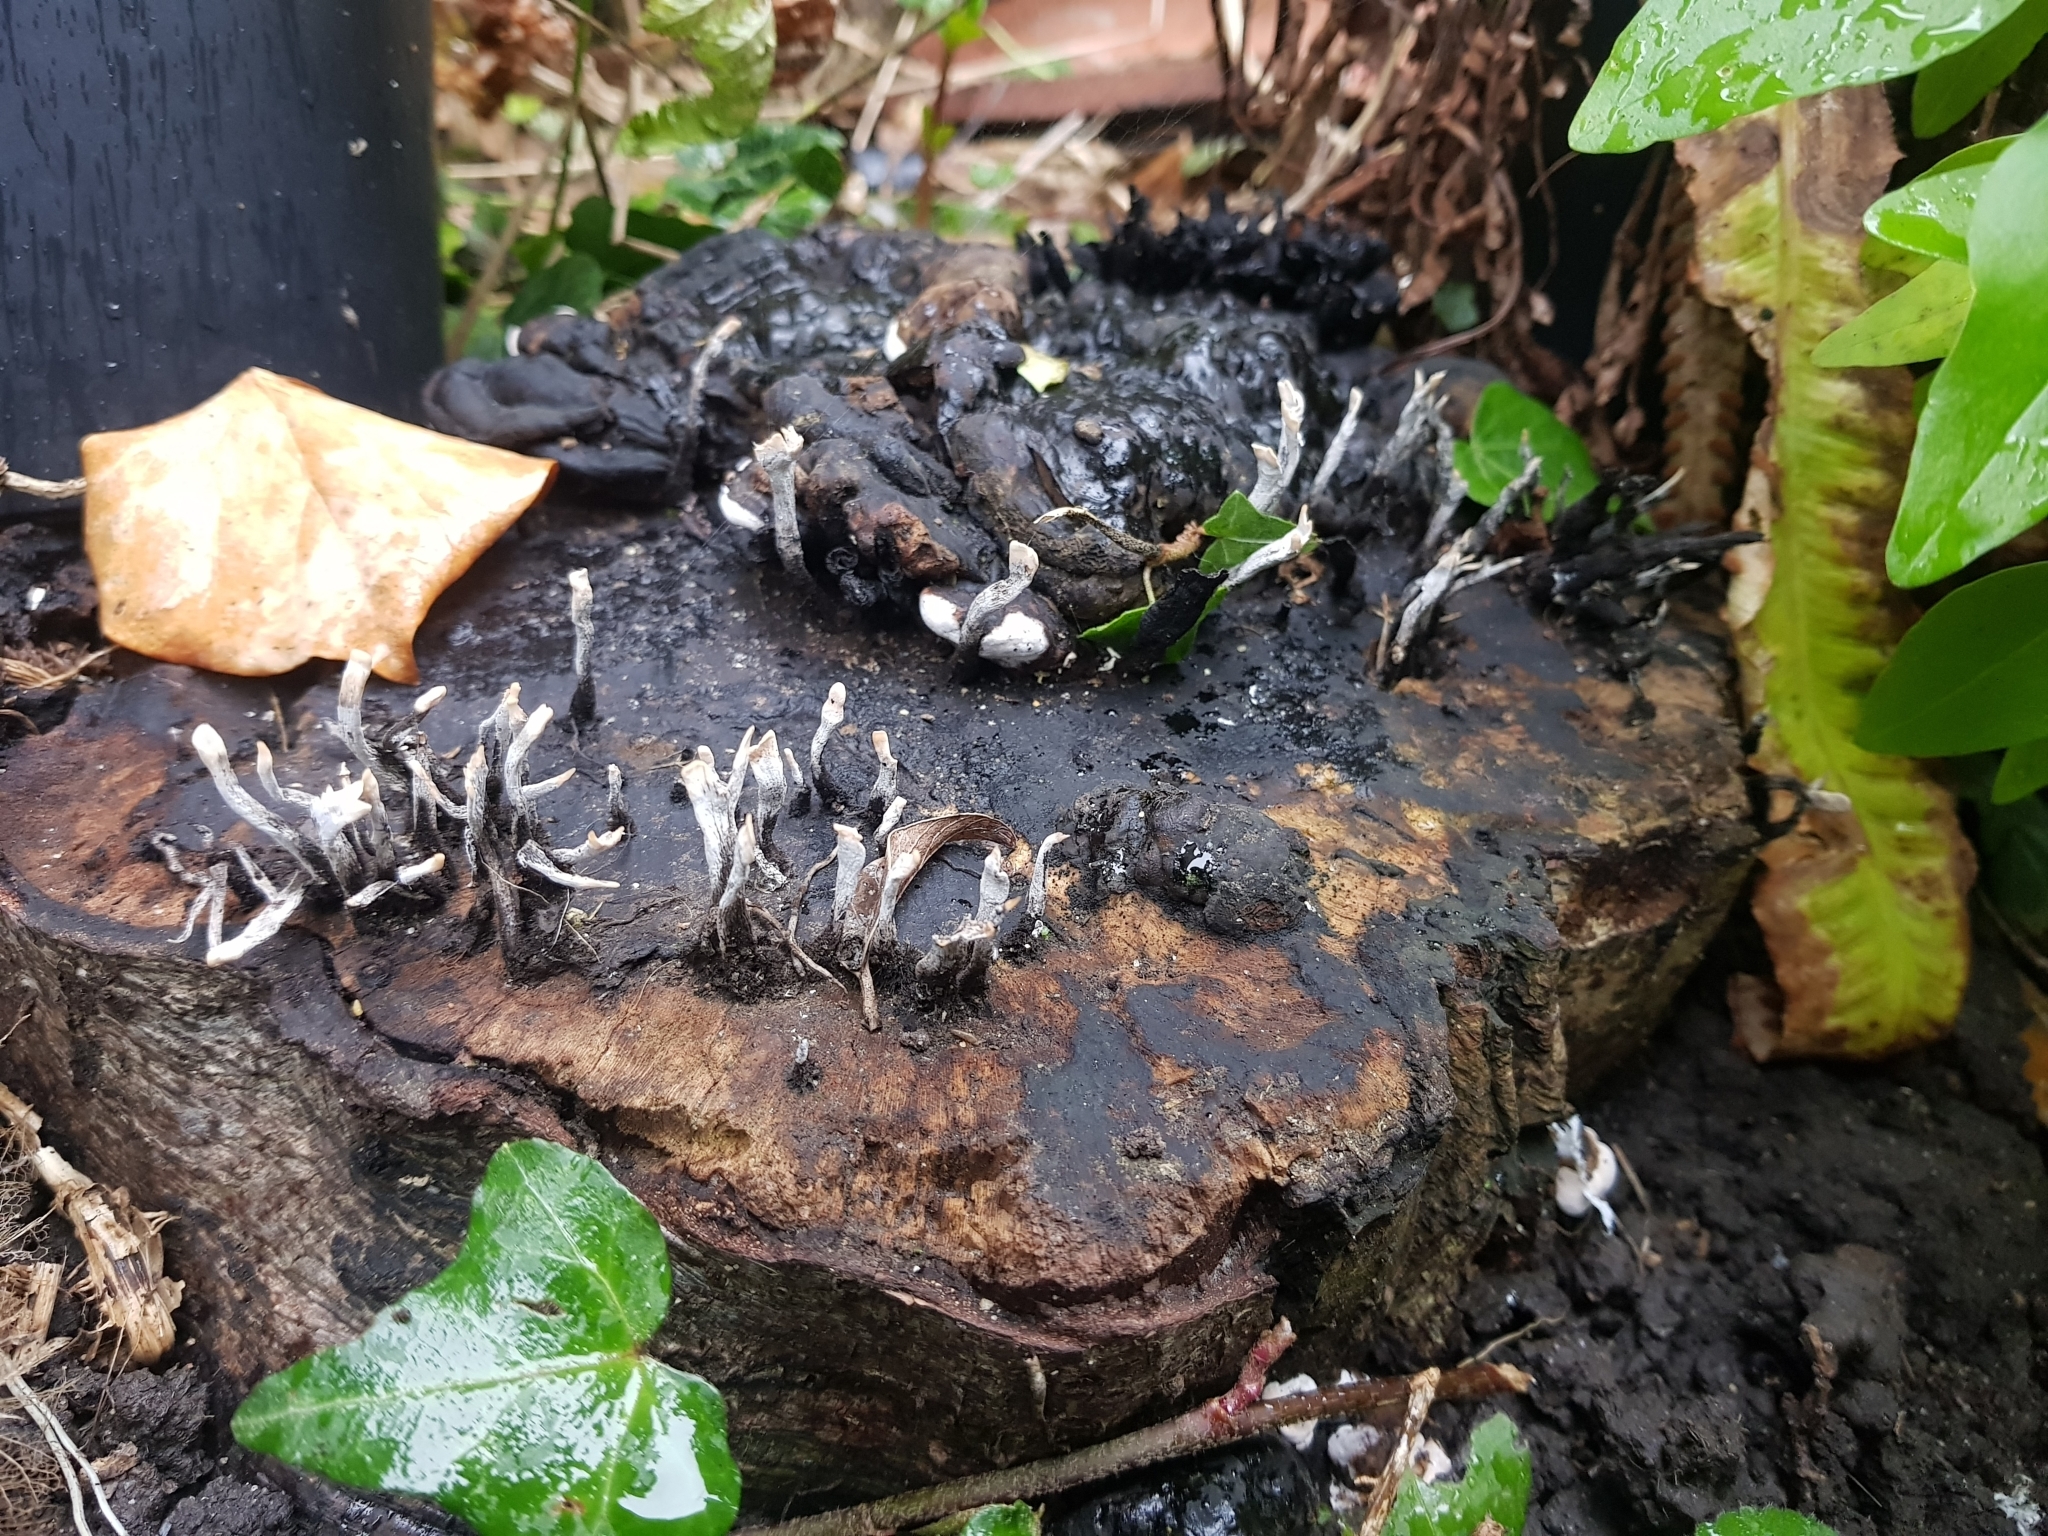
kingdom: Fungi
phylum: Ascomycota
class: Sordariomycetes
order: Xylariales
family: Xylariaceae
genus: Xylaria
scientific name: Xylaria hypoxylon
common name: Candle-snuff fungus
